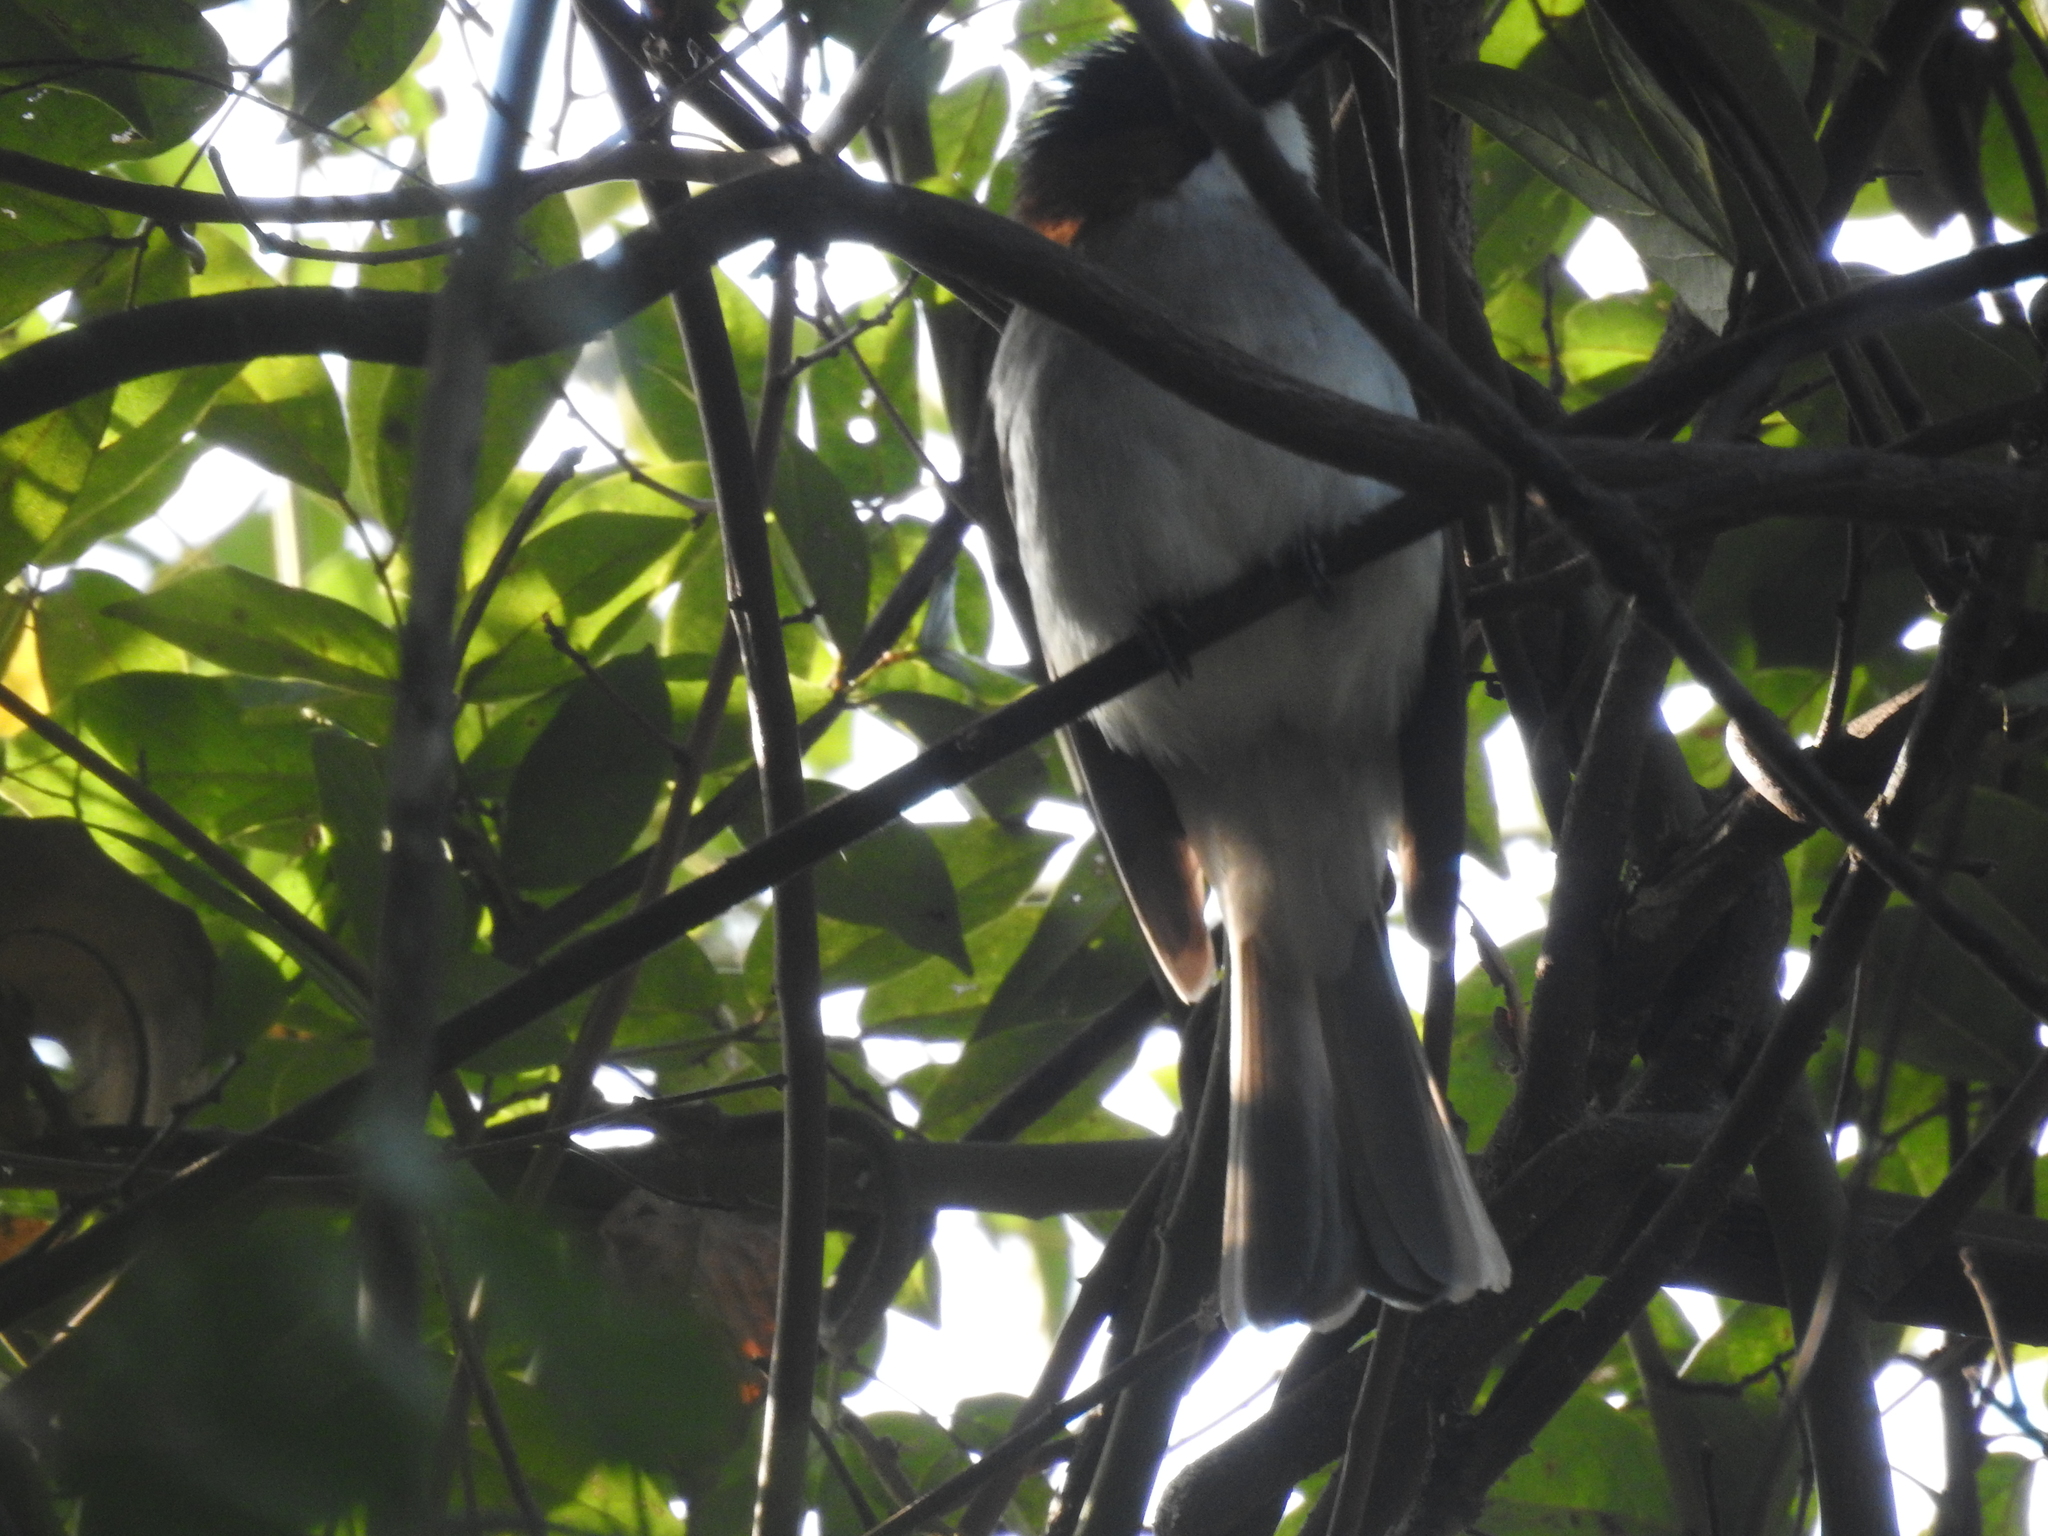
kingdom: Animalia
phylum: Chordata
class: Aves
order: Passeriformes
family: Pycnonotidae
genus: Hemixos
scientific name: Hemixos castanonotus
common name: Chestnut bulbul
